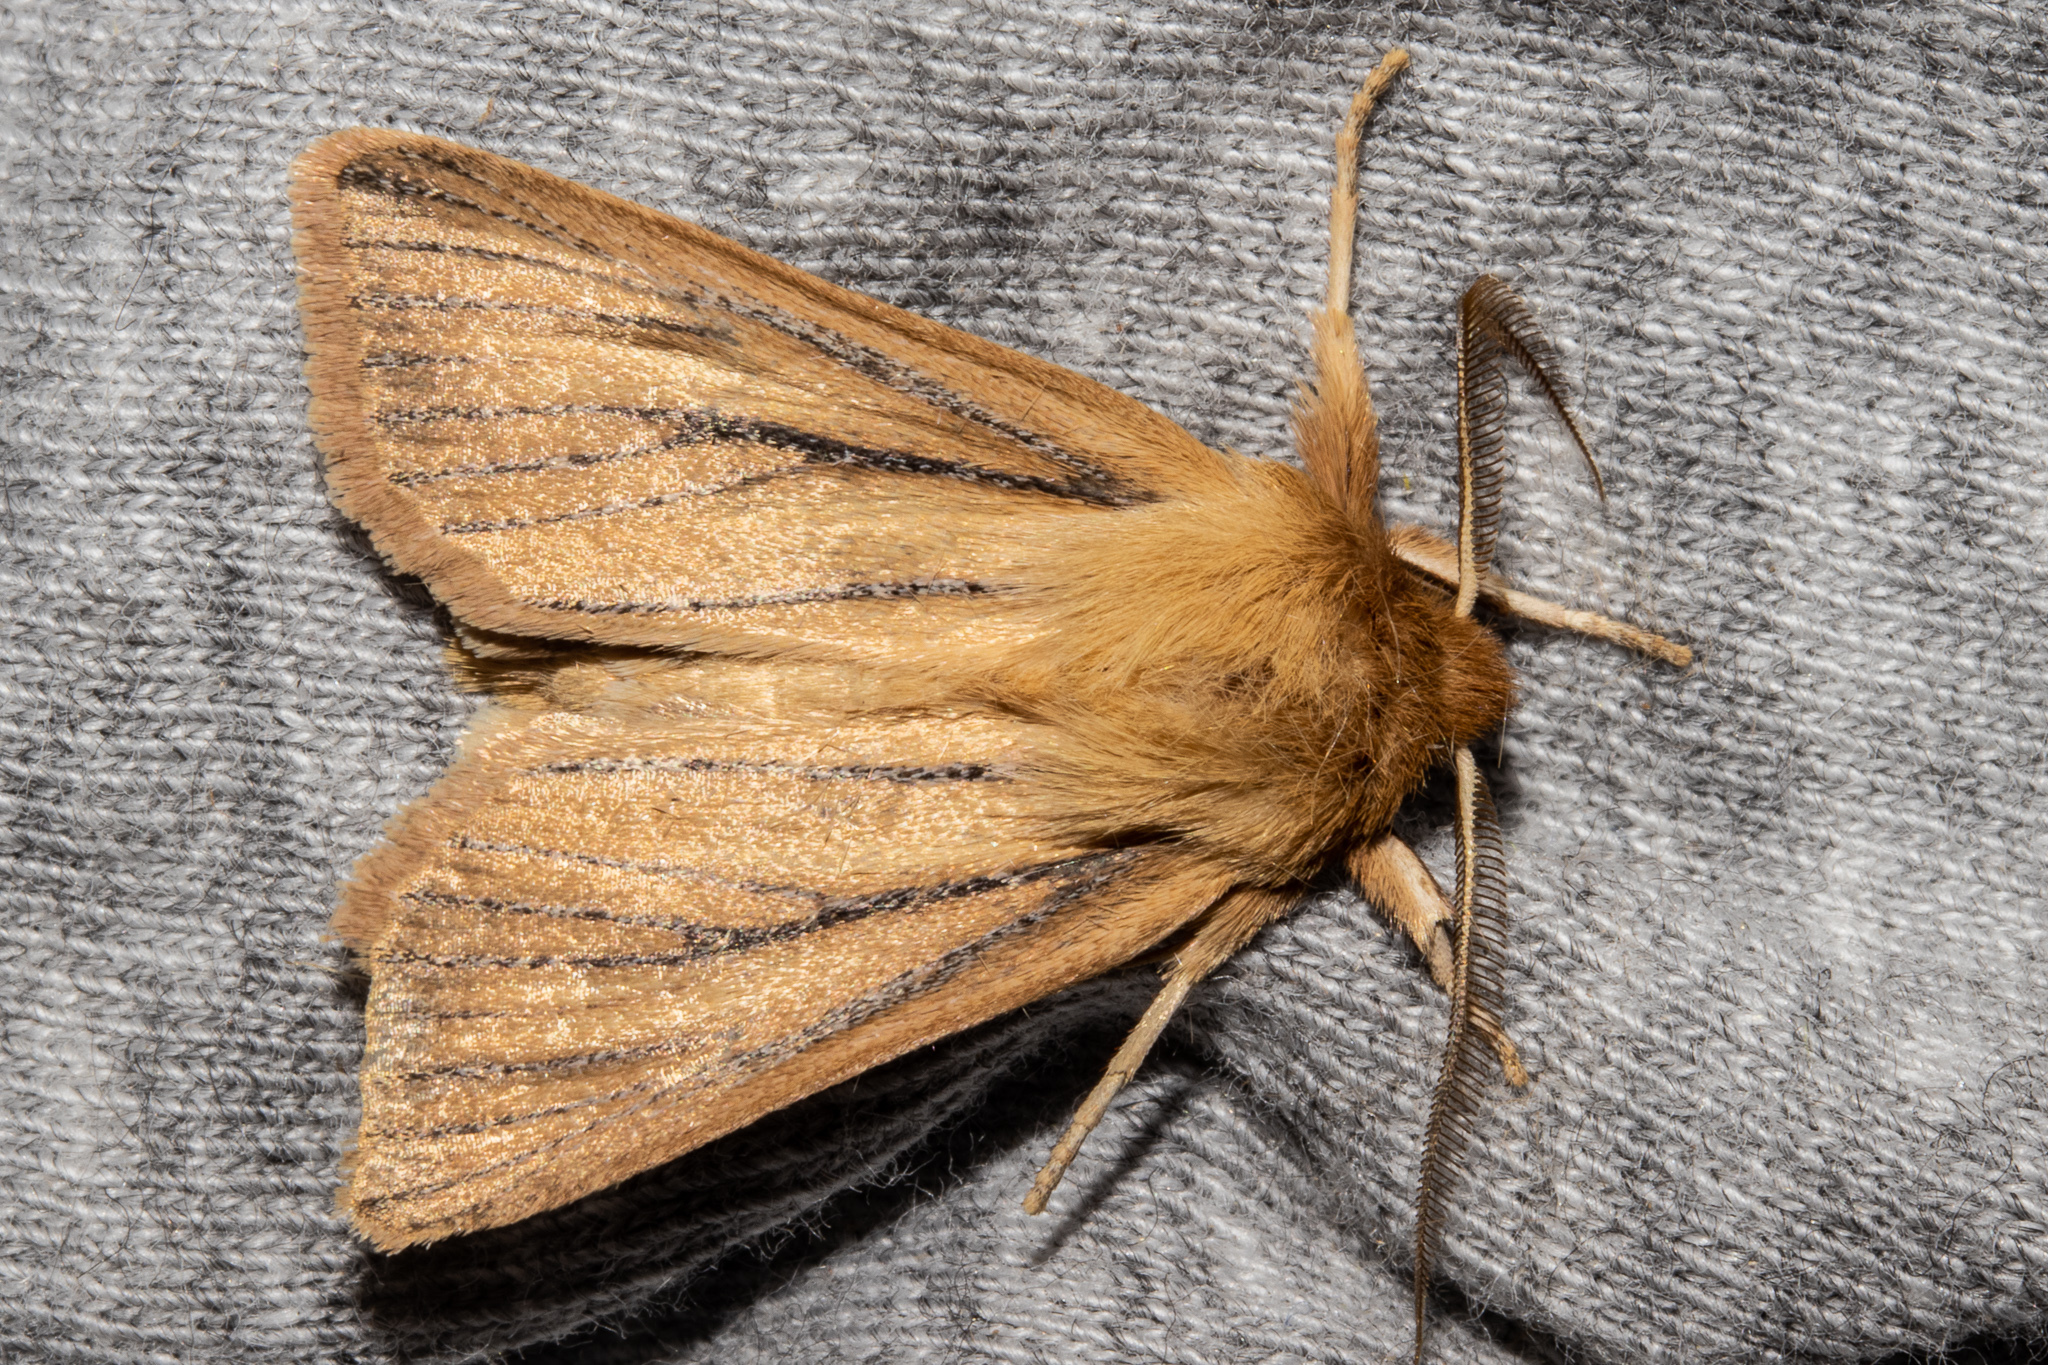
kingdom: Animalia
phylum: Arthropoda
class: Insecta
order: Lepidoptera
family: Noctuidae
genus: Ichneutica
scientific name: Ichneutica
